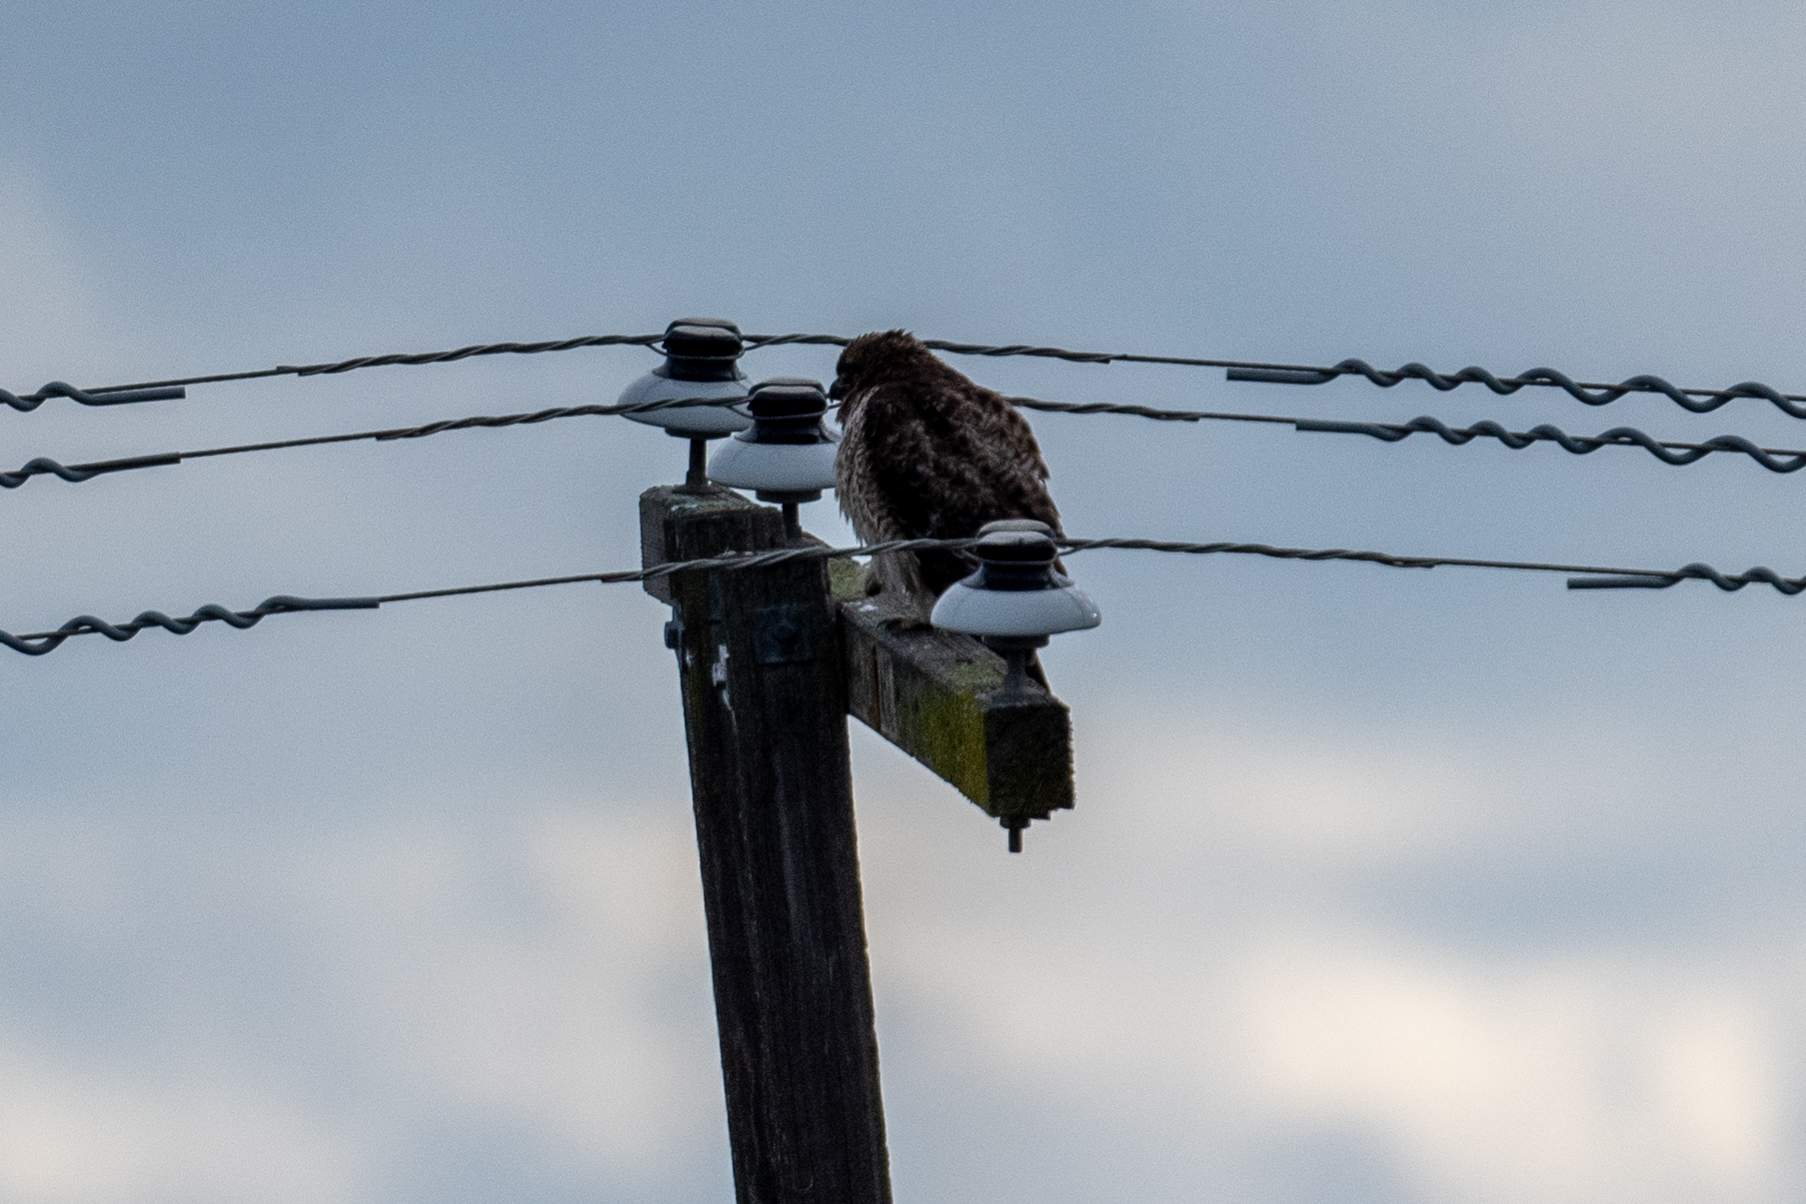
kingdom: Animalia
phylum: Chordata
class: Aves
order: Accipitriformes
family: Accipitridae
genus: Buteo
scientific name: Buteo jamaicensis
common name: Red-tailed hawk
